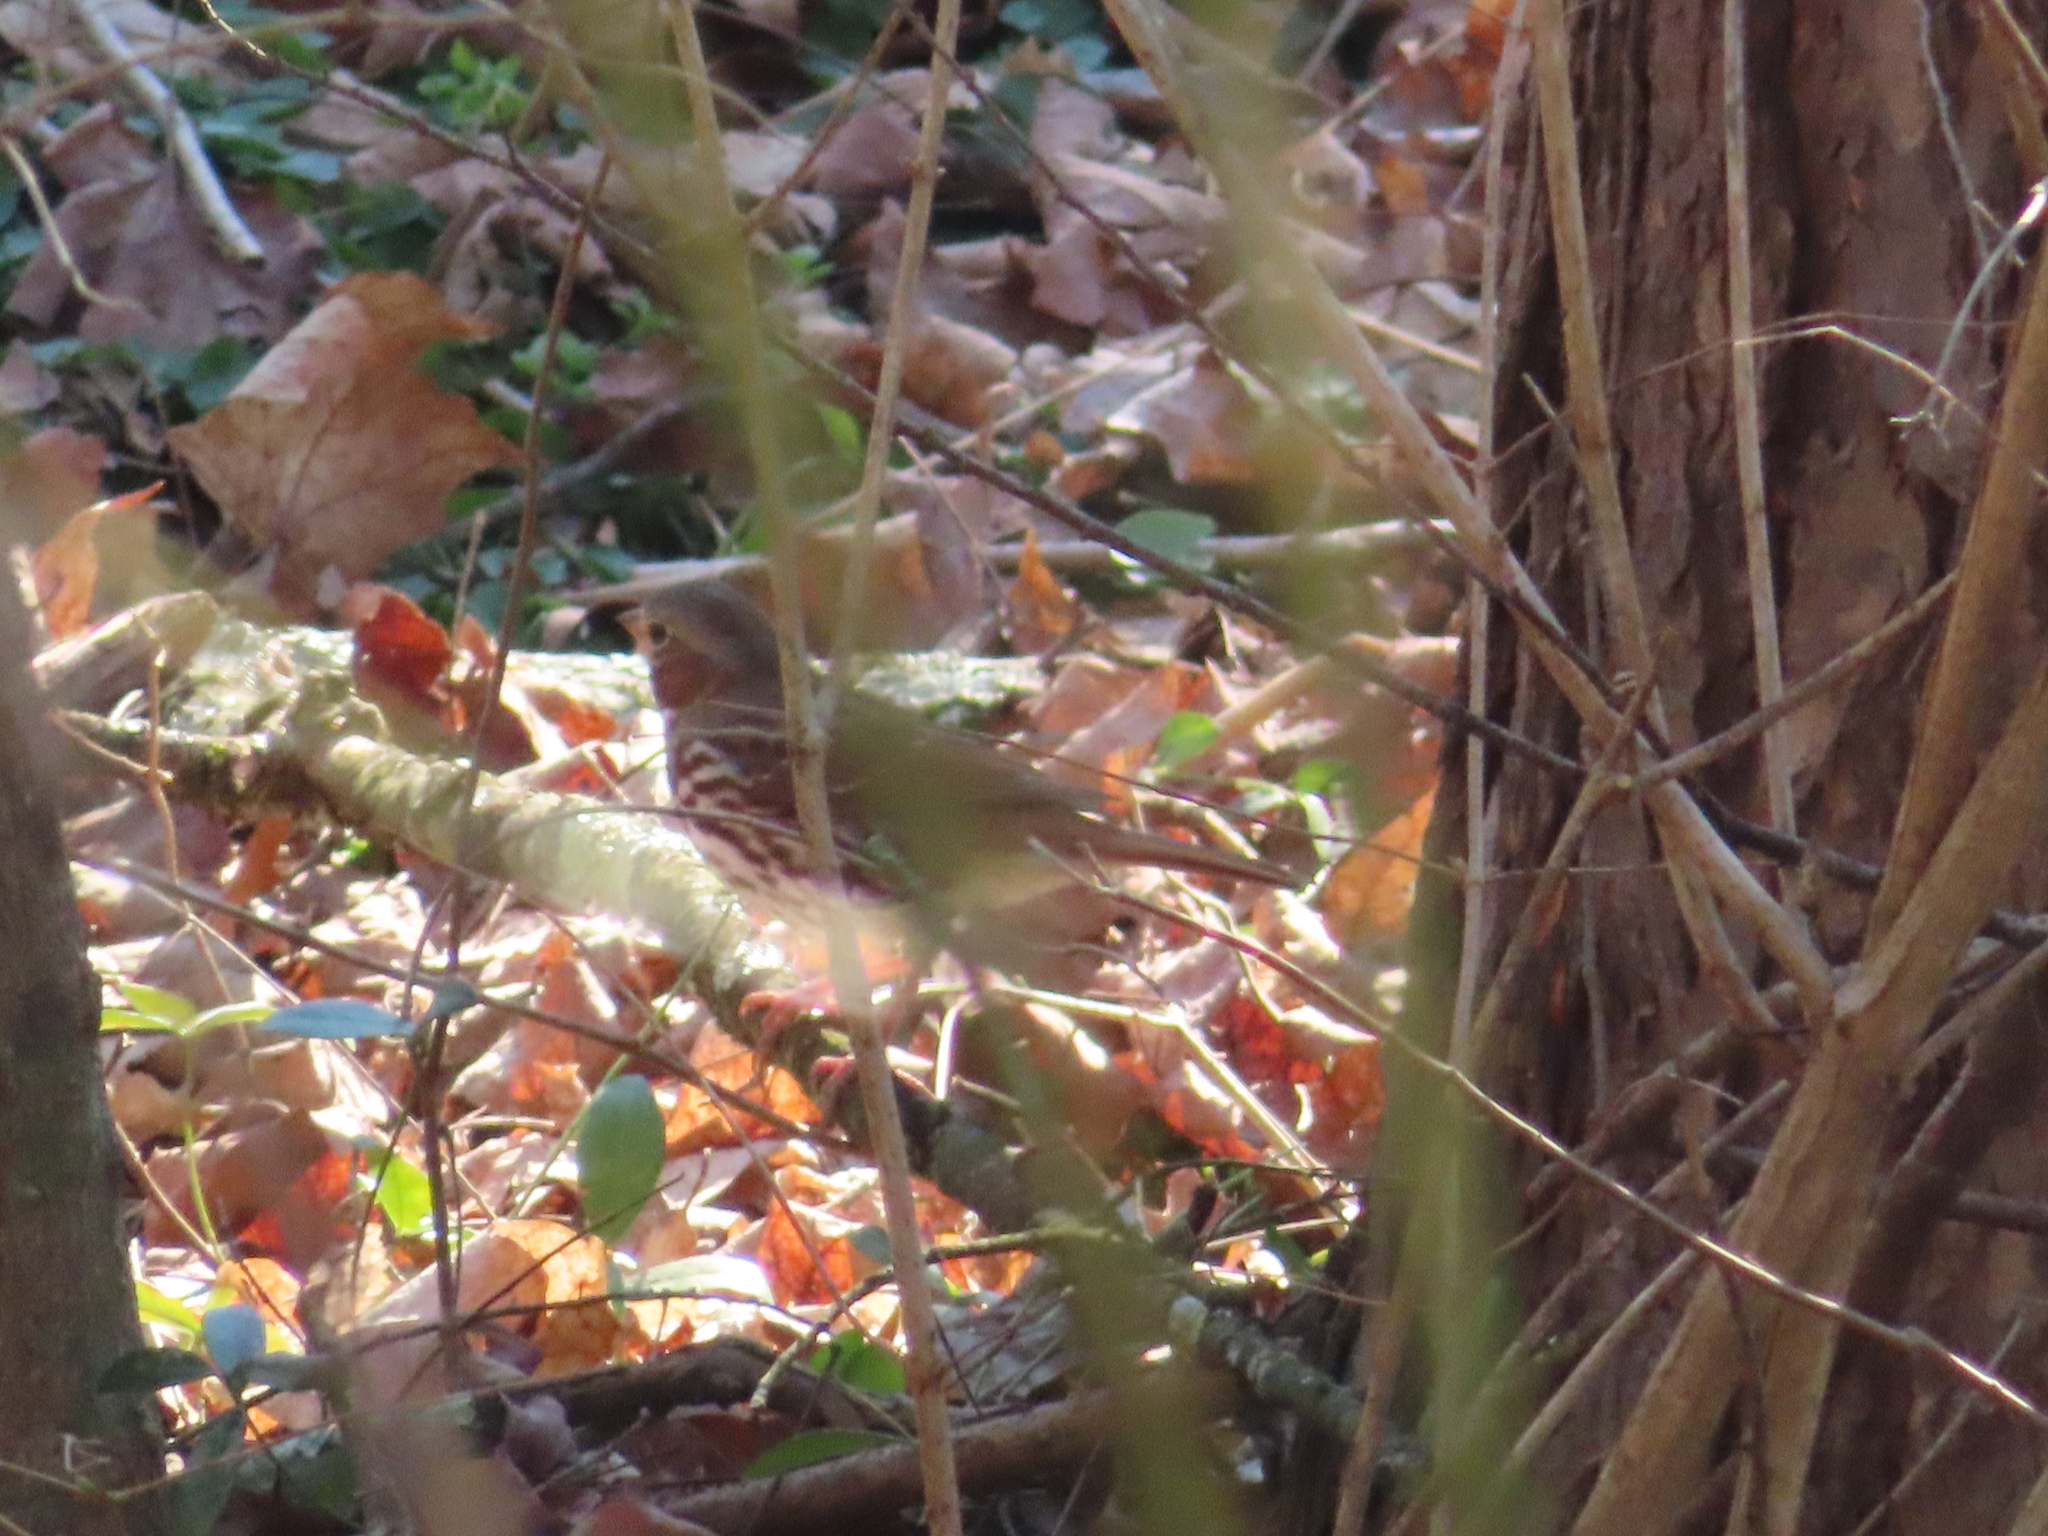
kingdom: Animalia
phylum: Chordata
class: Aves
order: Passeriformes
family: Passerellidae
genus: Passerella
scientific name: Passerella iliaca
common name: Fox sparrow
